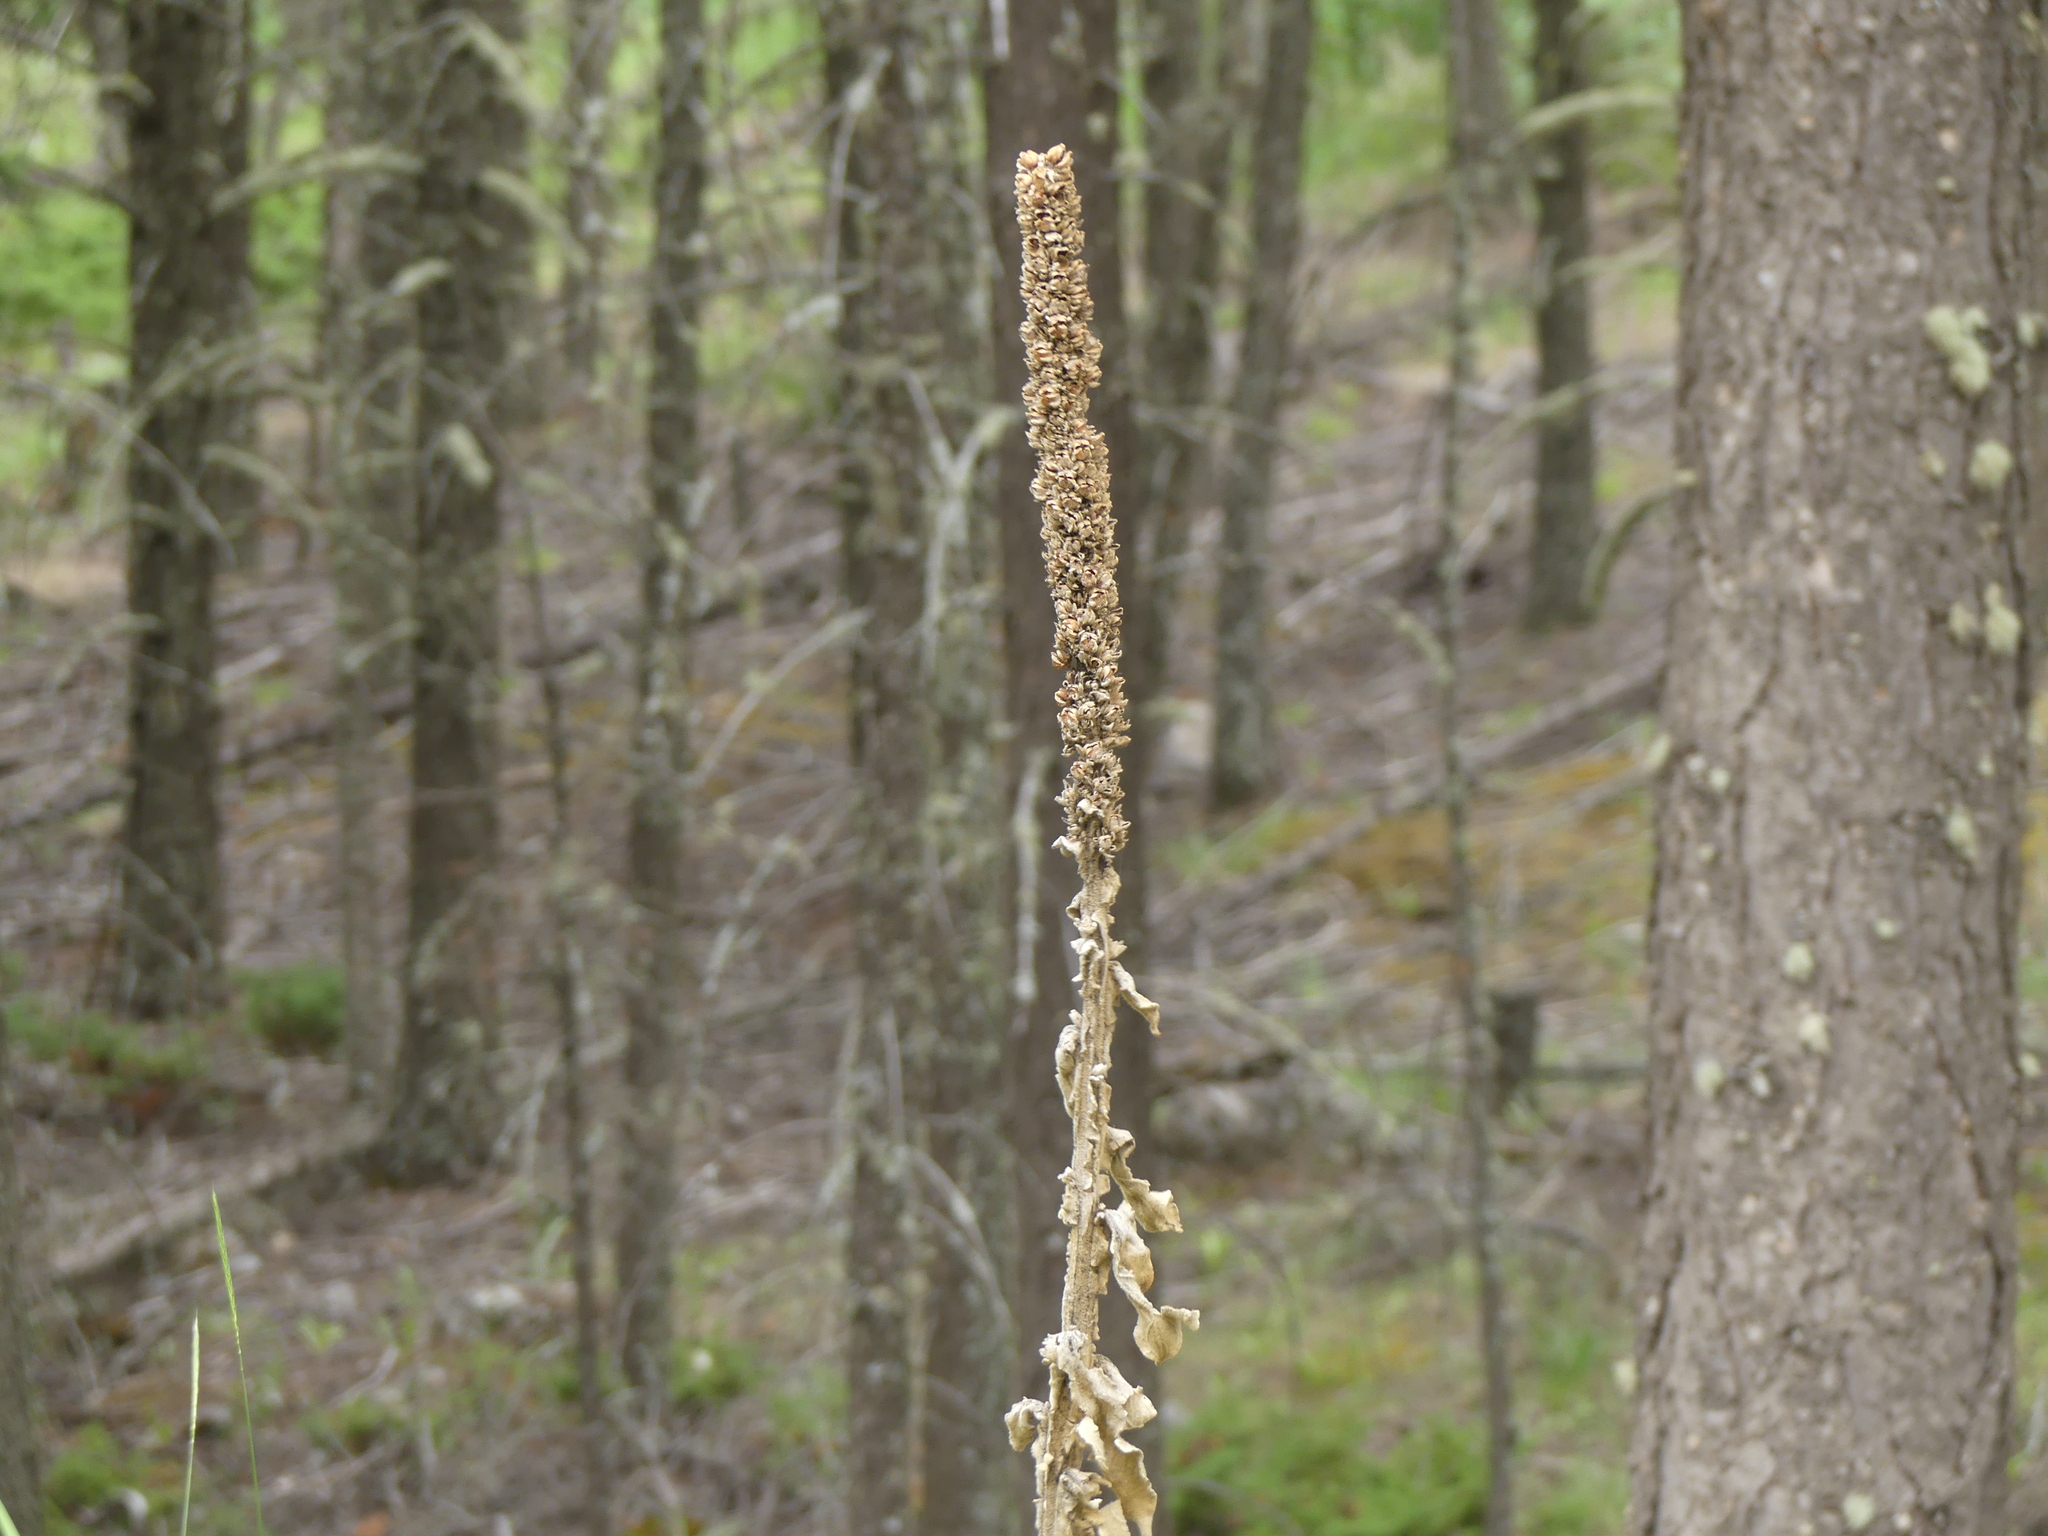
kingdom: Plantae
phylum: Tracheophyta
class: Magnoliopsida
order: Lamiales
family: Scrophulariaceae
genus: Verbascum
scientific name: Verbascum thapsus
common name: Common mullein
